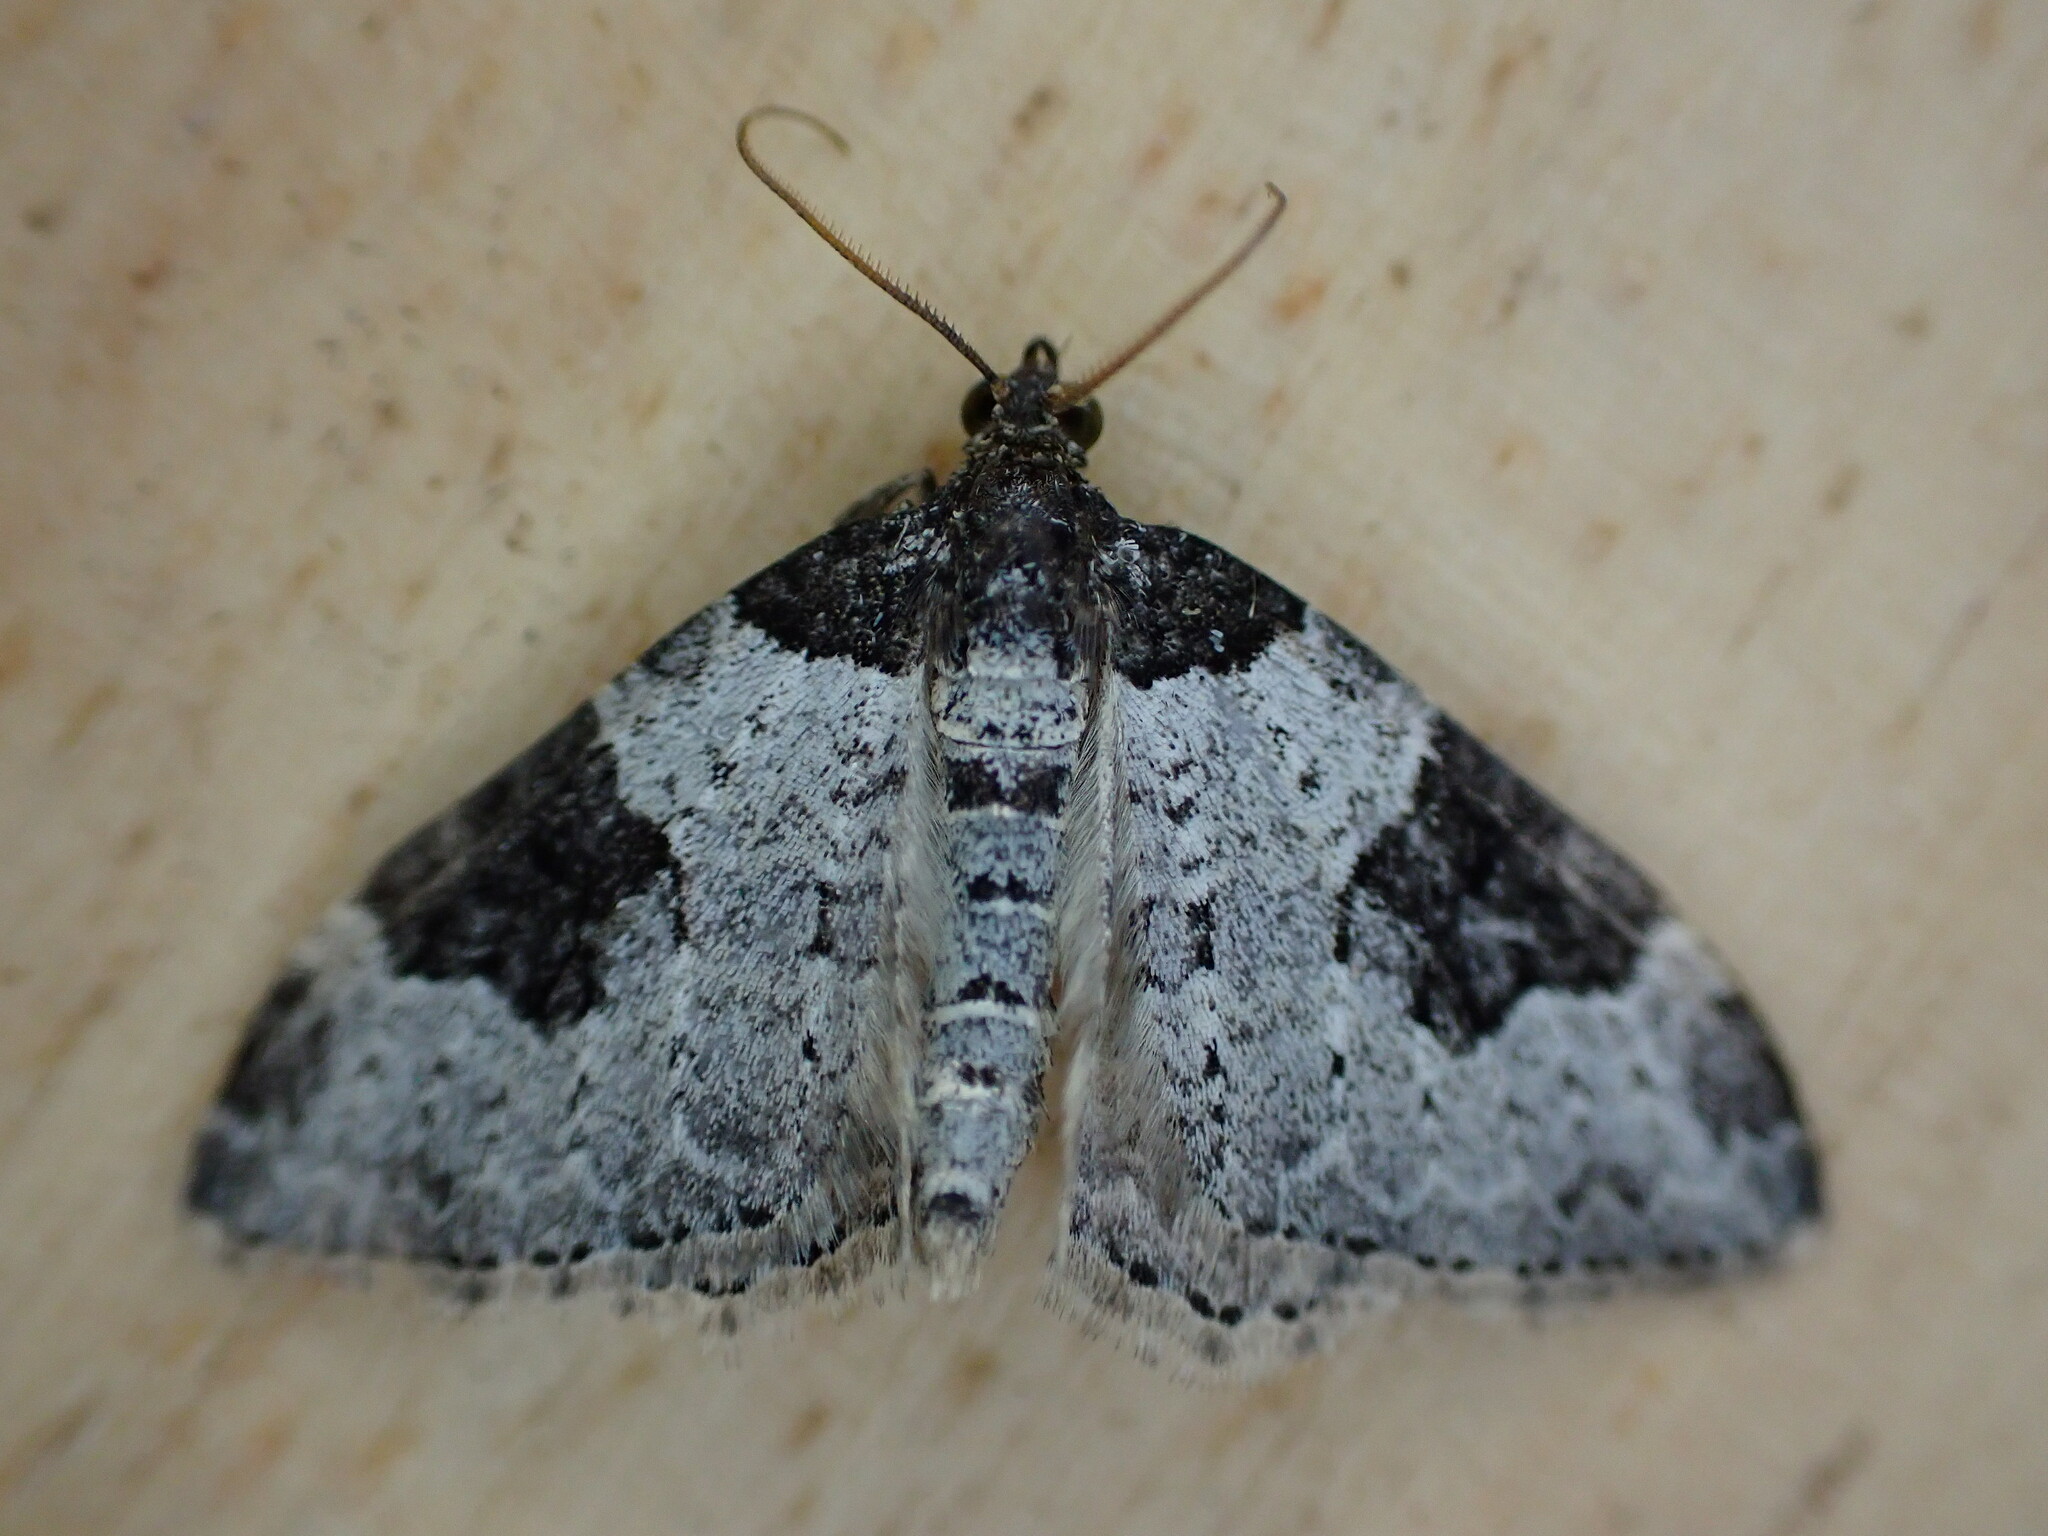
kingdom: Animalia
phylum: Arthropoda
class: Insecta
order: Lepidoptera
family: Geometridae
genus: Xanthorhoe
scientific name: Xanthorhoe fluctuata
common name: Garden carpet
